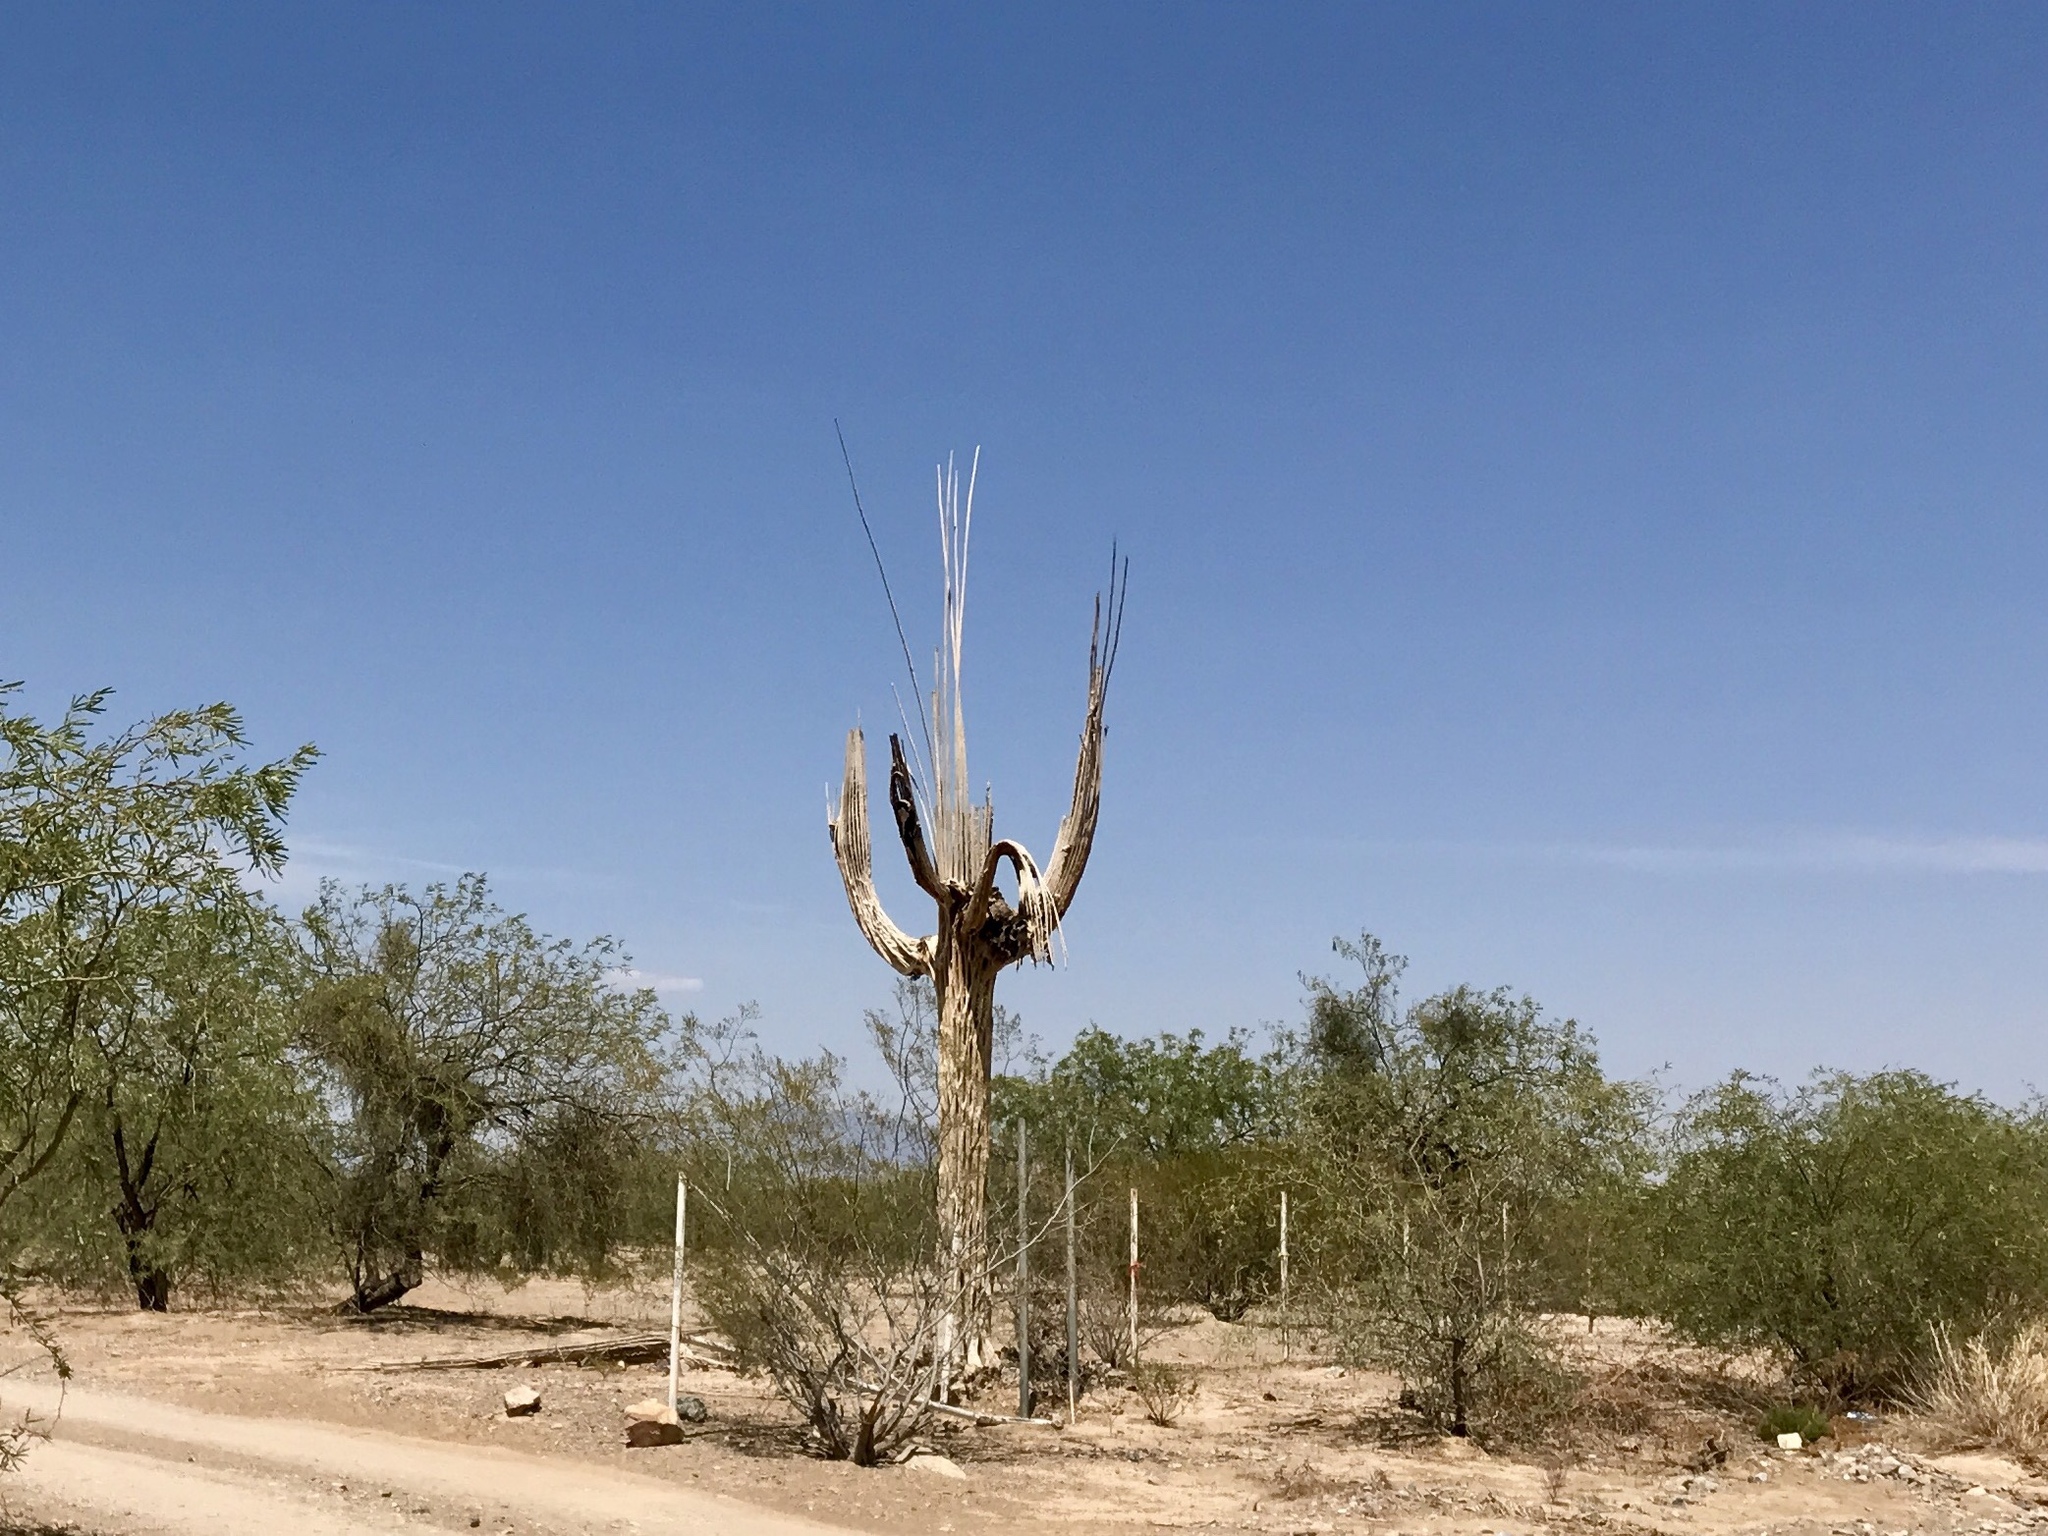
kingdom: Plantae
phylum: Tracheophyta
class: Magnoliopsida
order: Caryophyllales
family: Cactaceae
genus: Carnegiea
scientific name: Carnegiea gigantea
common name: Saguaro
